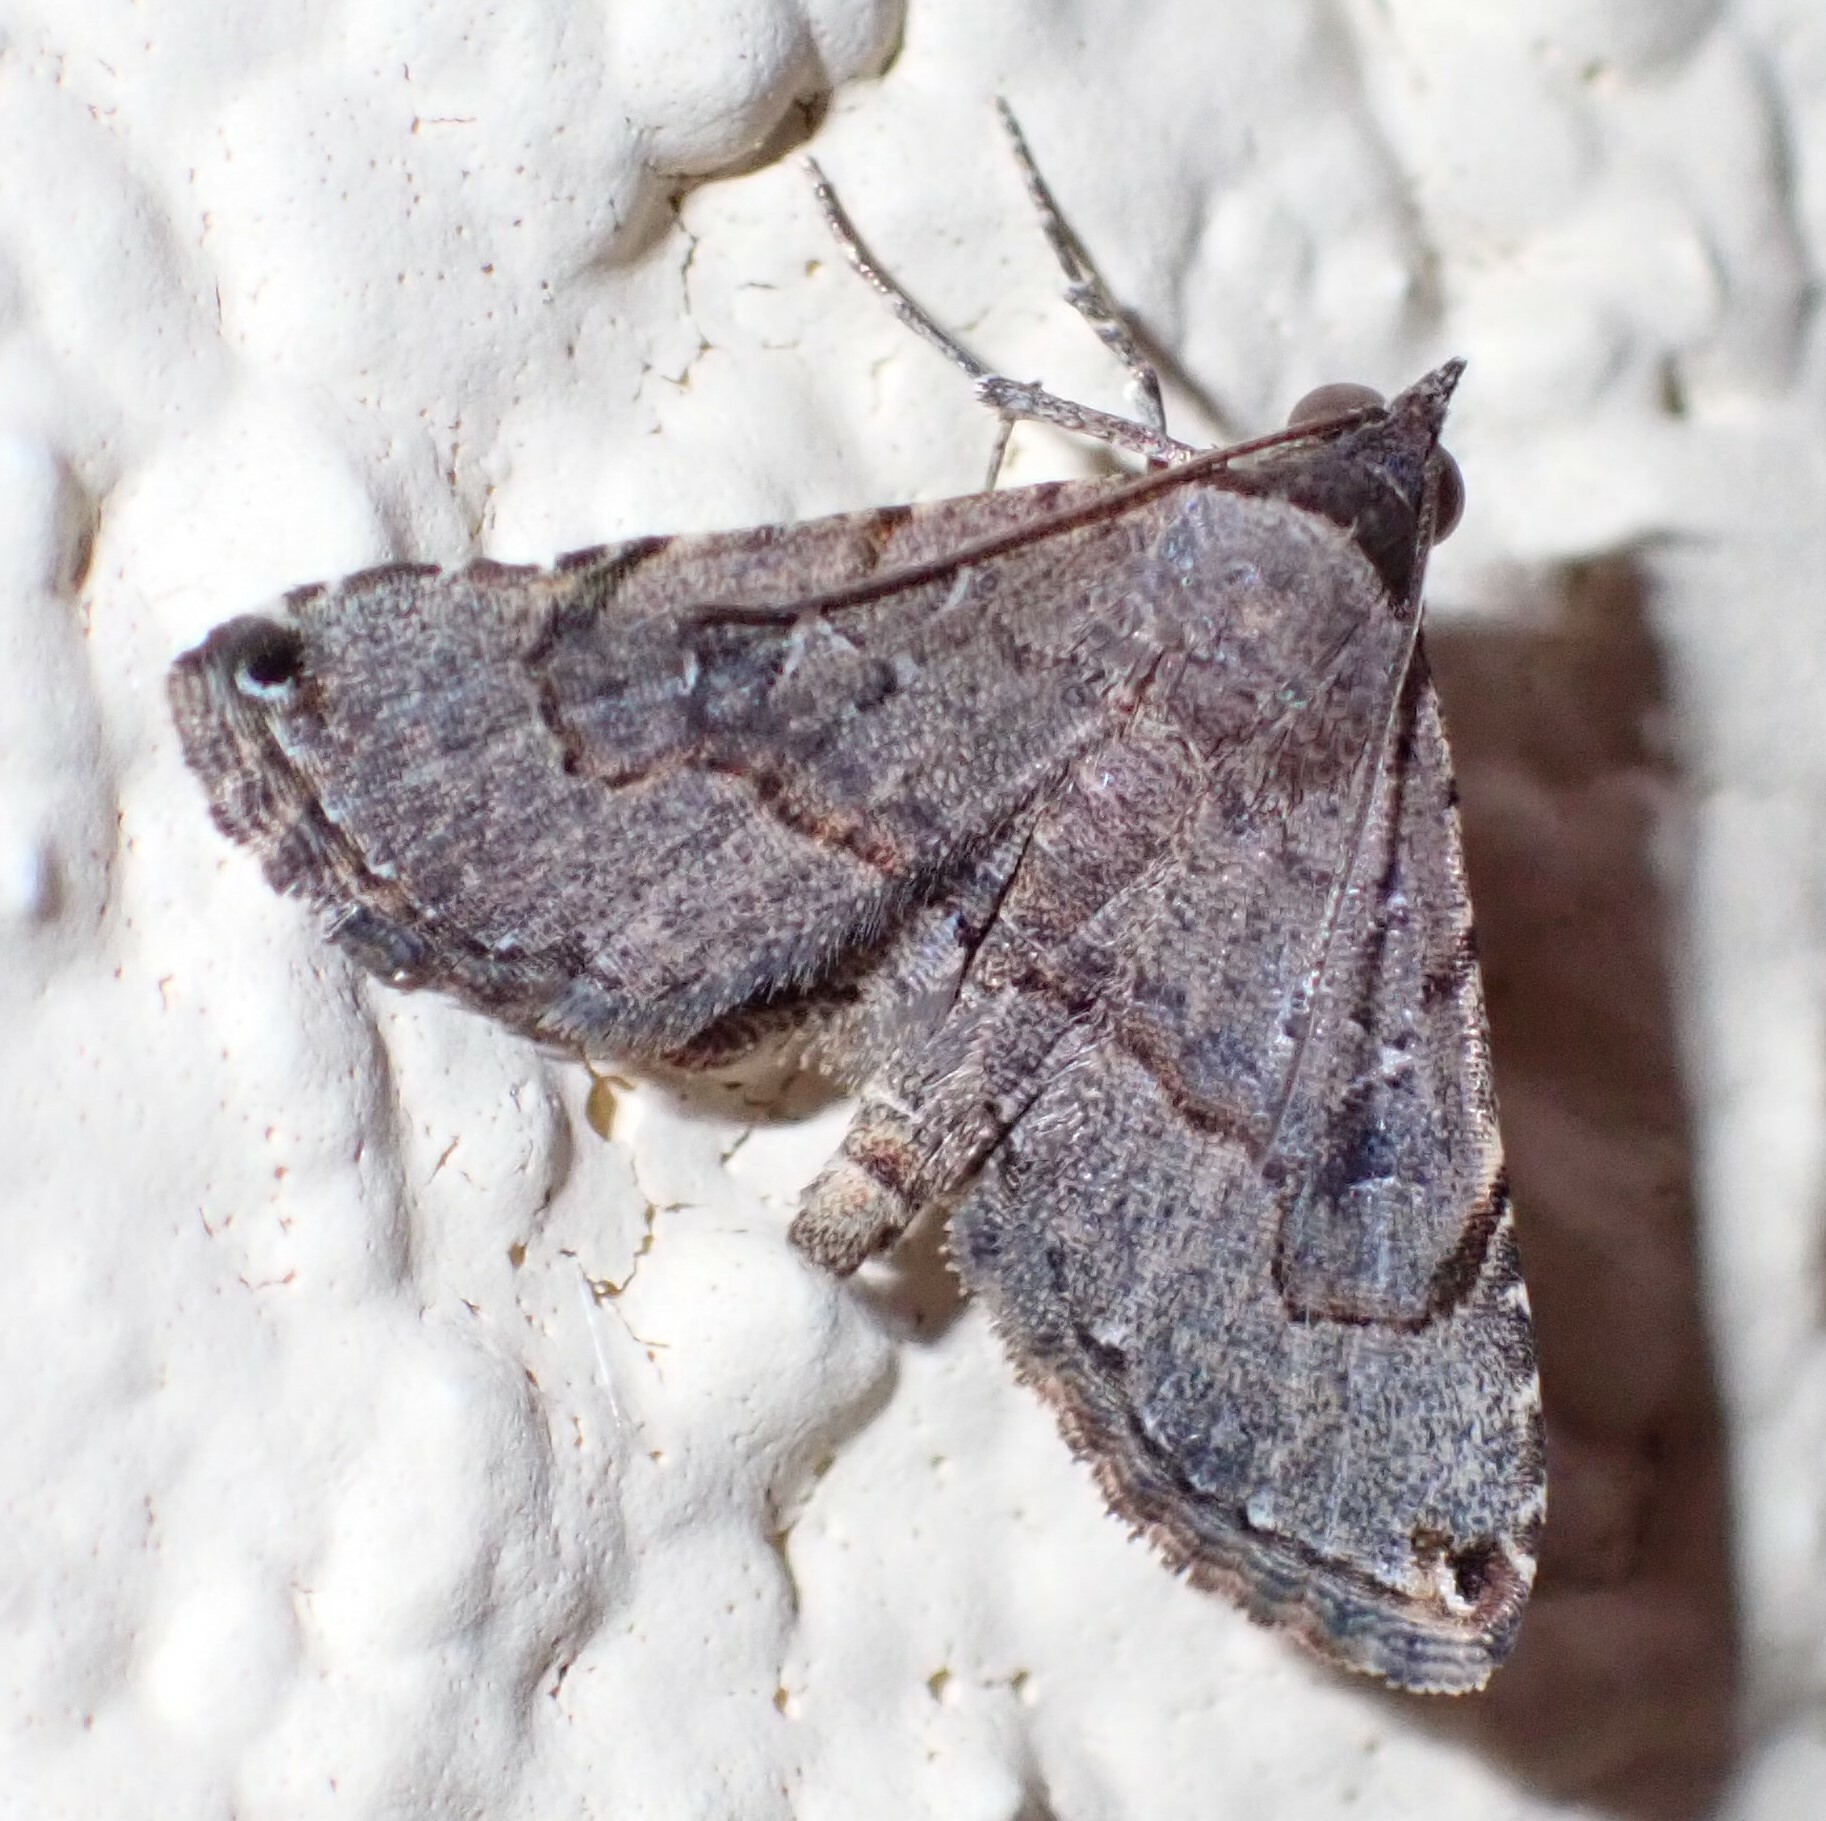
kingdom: Animalia
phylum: Arthropoda
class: Insecta
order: Lepidoptera
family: Erebidae
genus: Rhesala
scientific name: Rhesala moestalis
